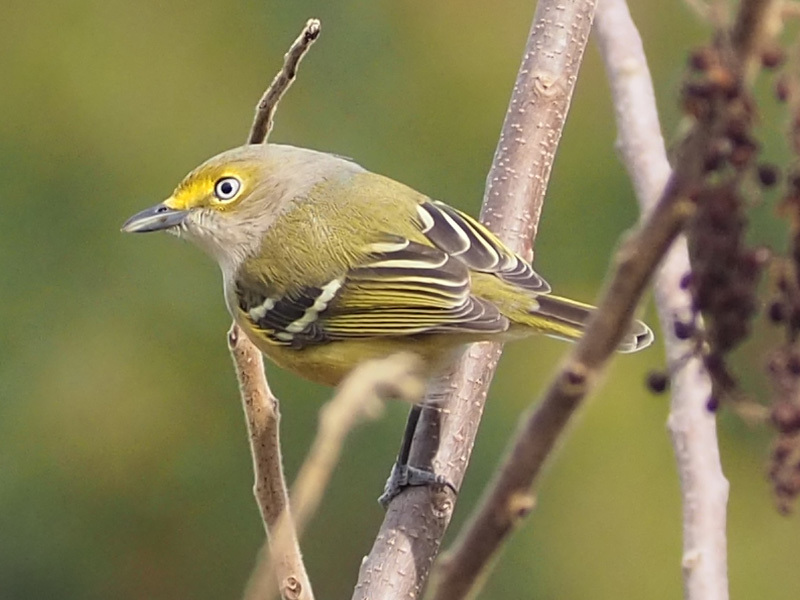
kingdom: Animalia
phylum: Chordata
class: Aves
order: Passeriformes
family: Vireonidae
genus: Vireo
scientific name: Vireo griseus
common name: White-eyed vireo
